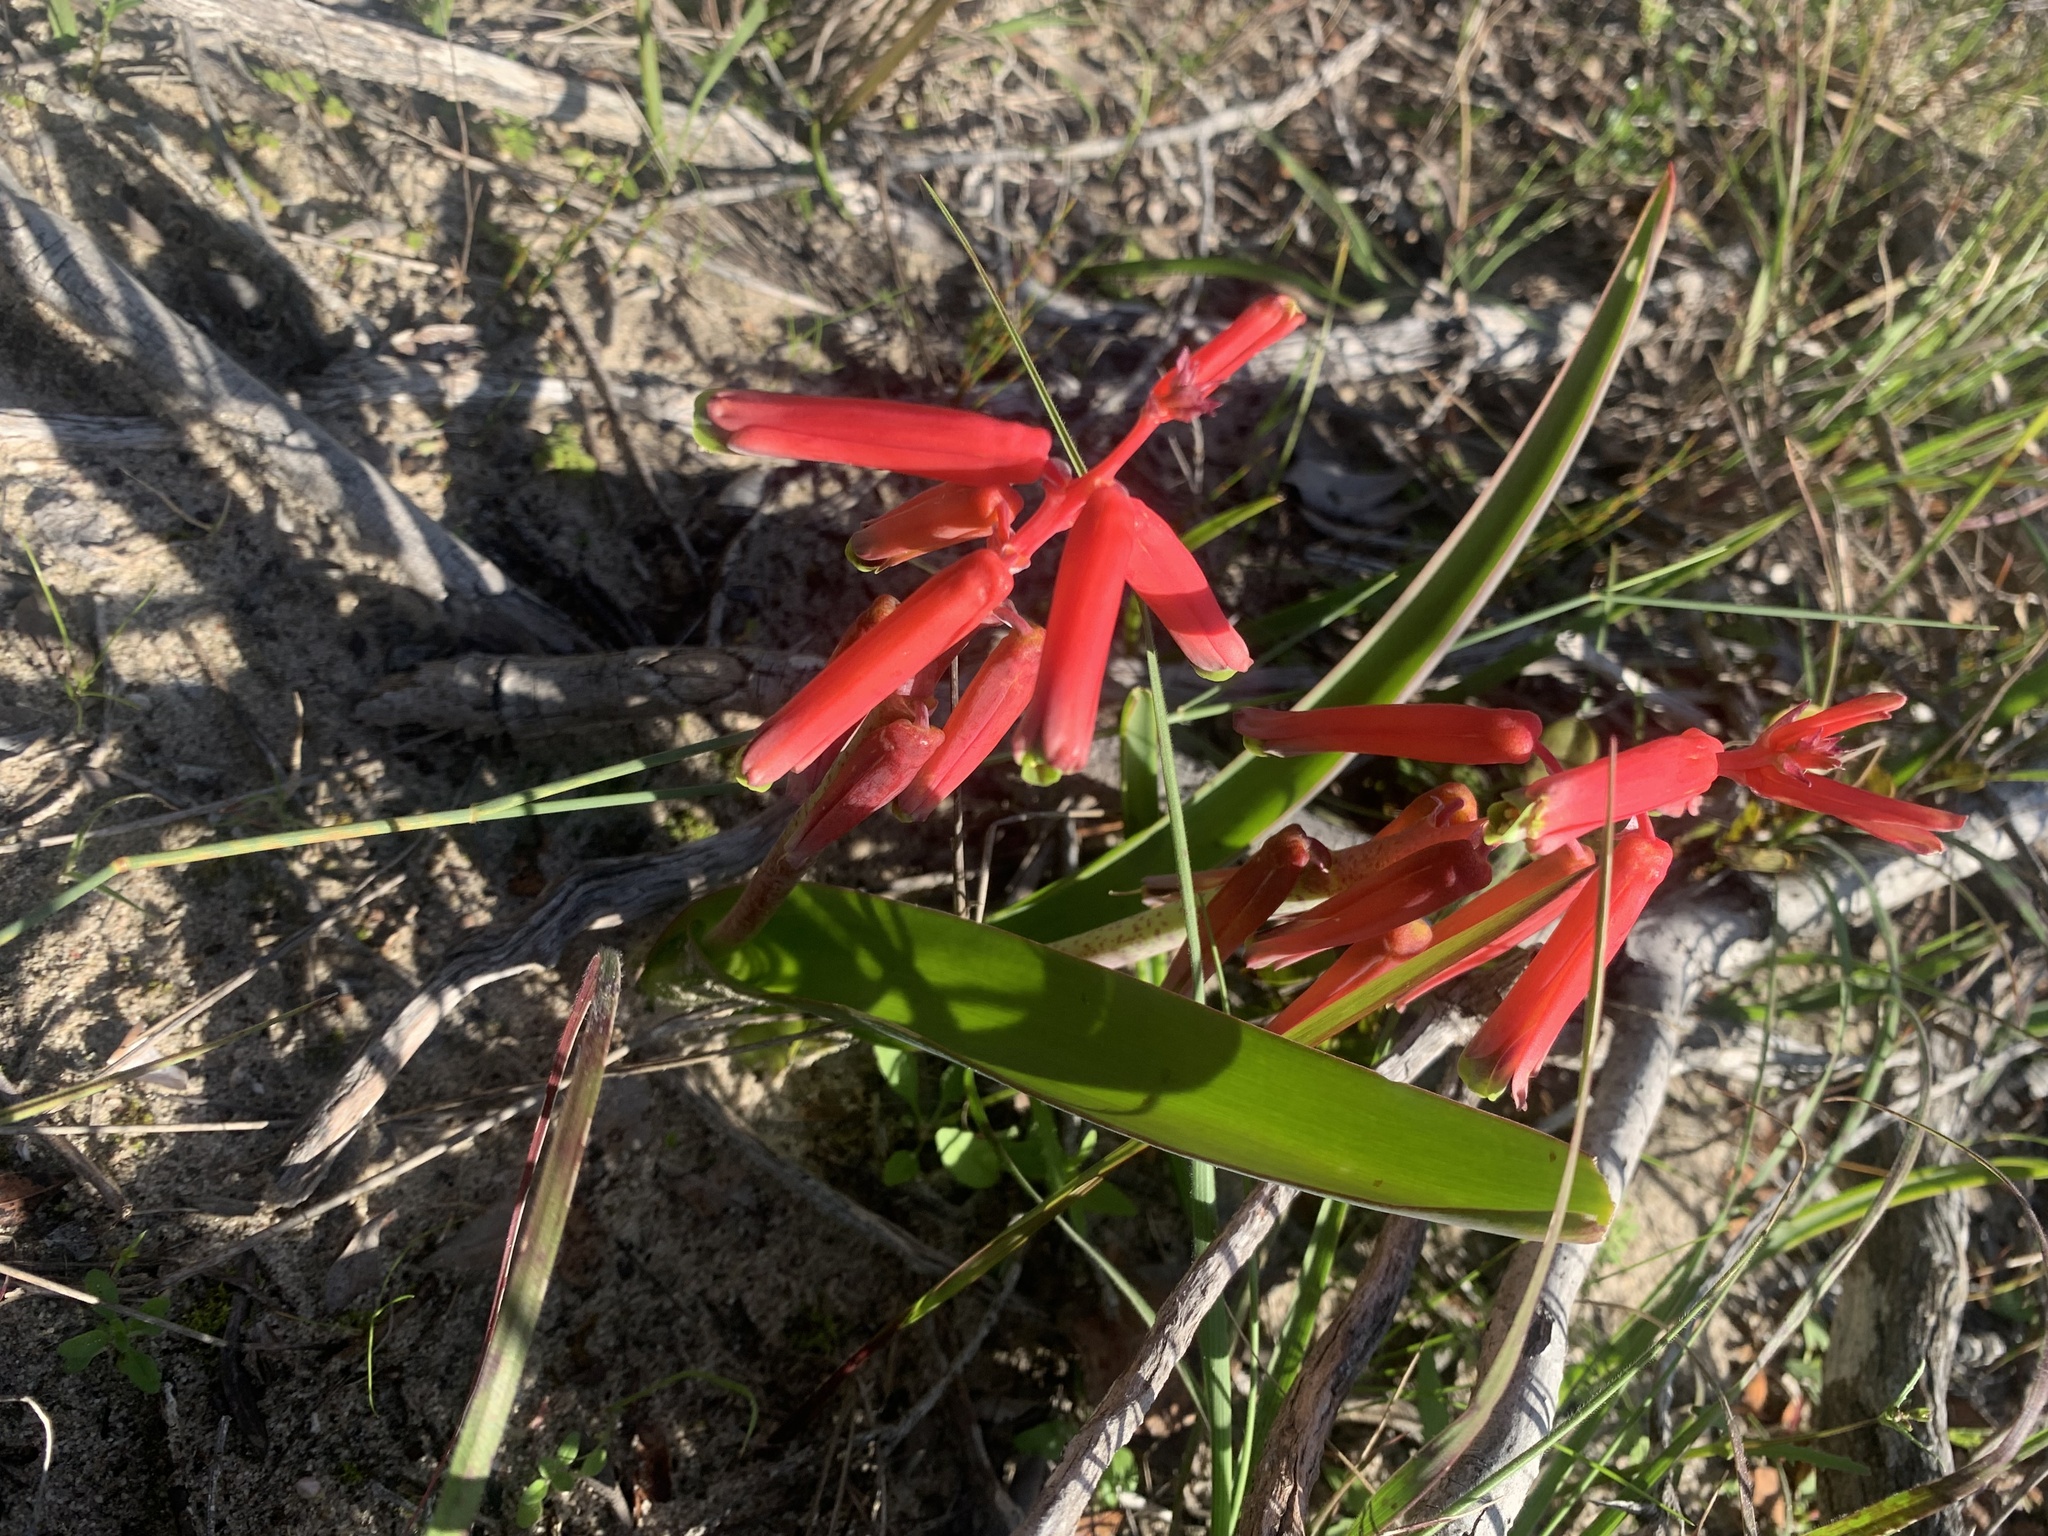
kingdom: Plantae
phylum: Tracheophyta
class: Liliopsida
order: Asparagales
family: Asparagaceae
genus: Lachenalia
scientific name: Lachenalia bulbifera
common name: Red lachenalia
